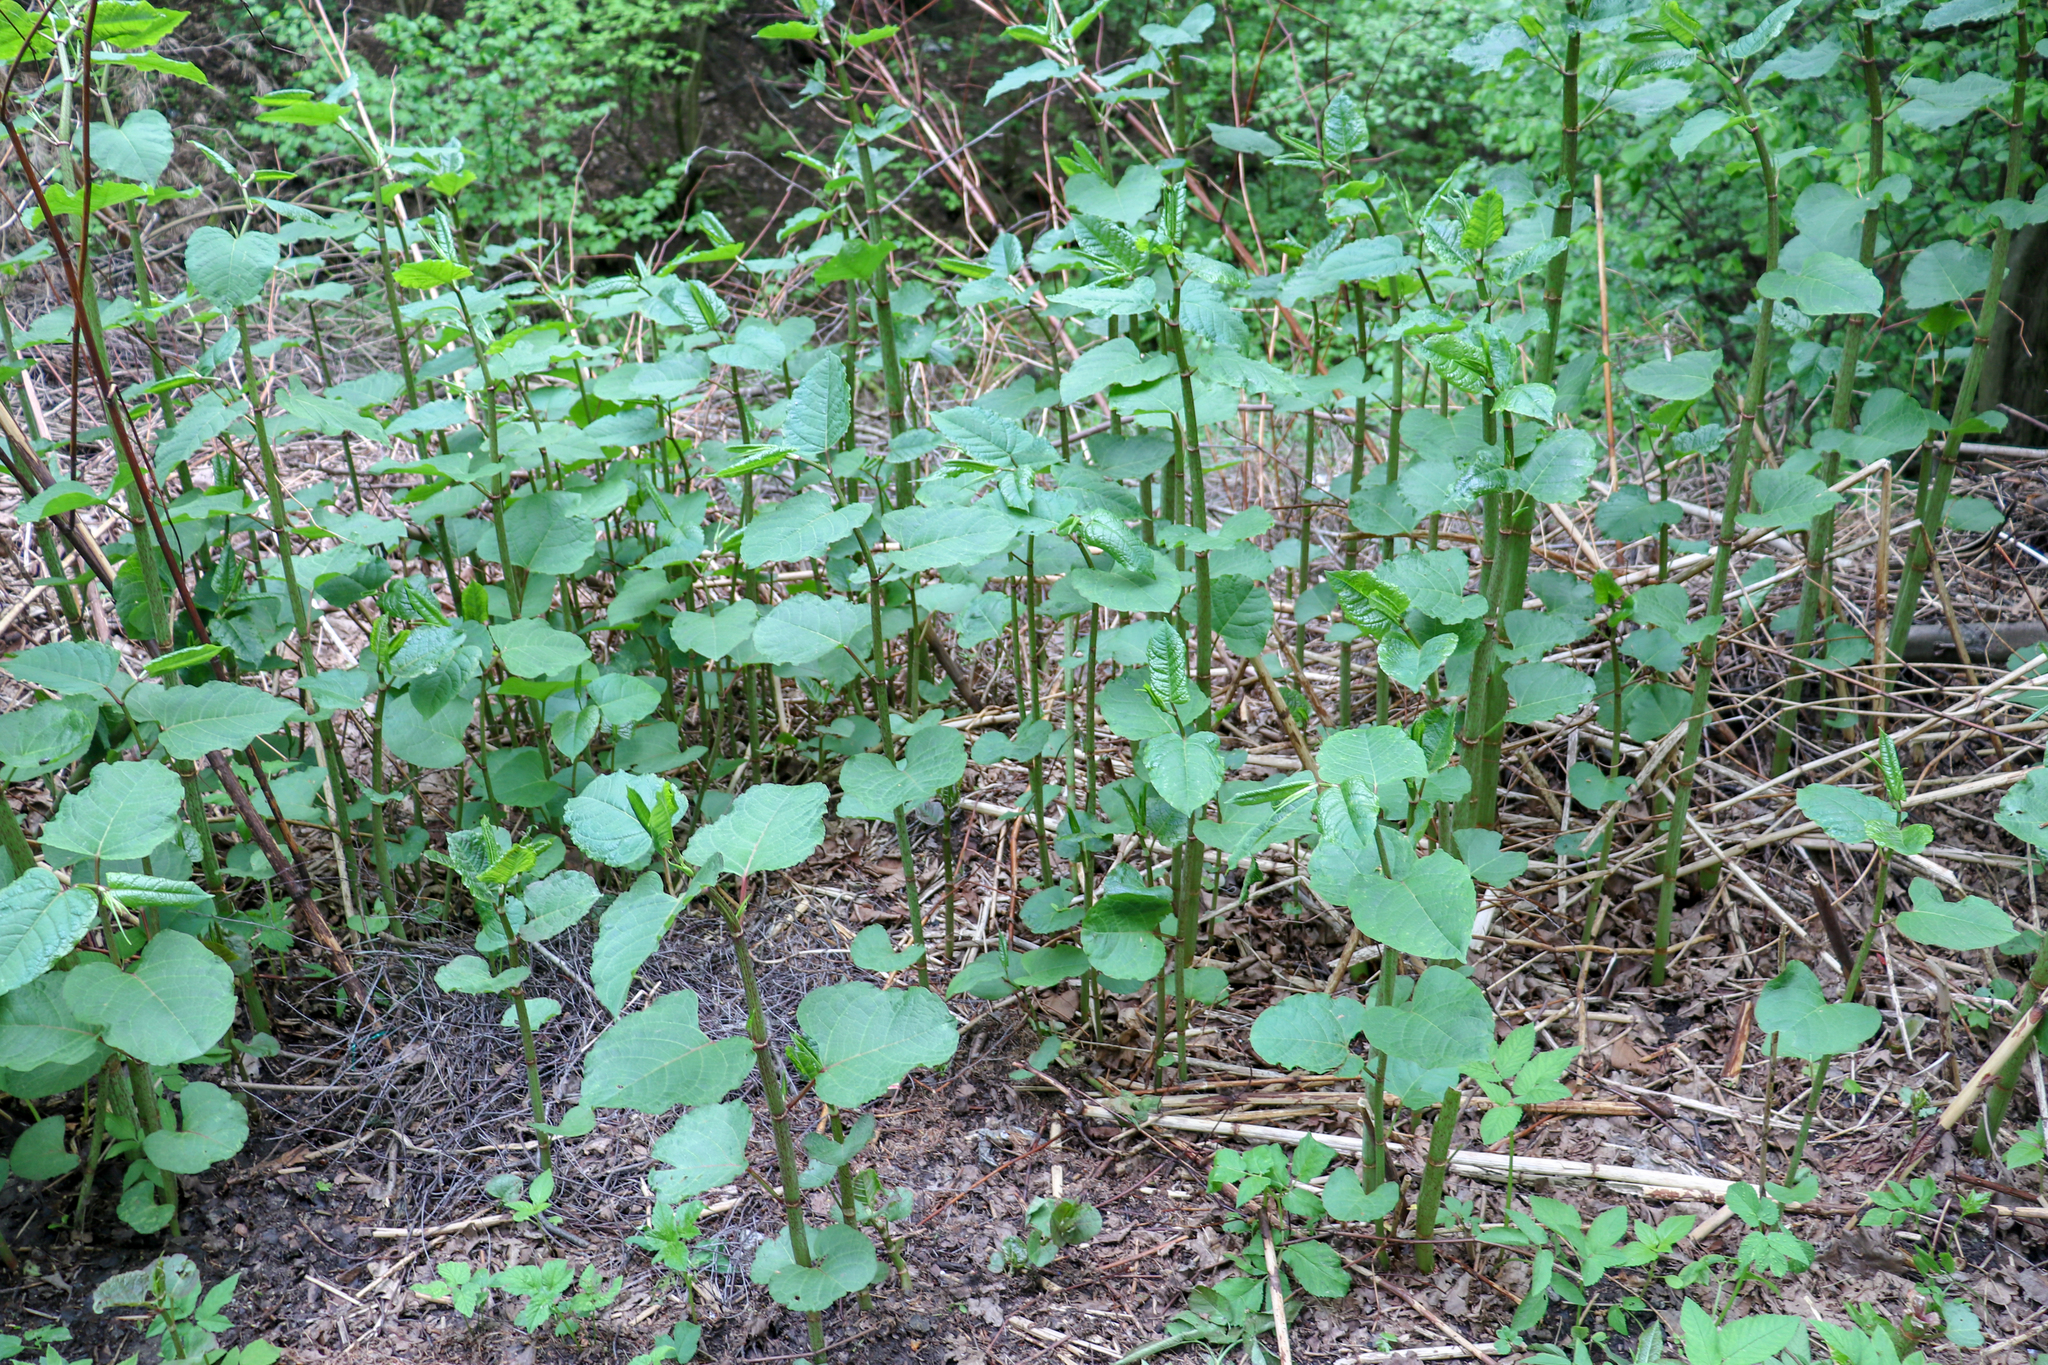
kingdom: Plantae
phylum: Tracheophyta
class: Magnoliopsida
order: Caryophyllales
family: Polygonaceae
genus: Reynoutria
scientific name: Reynoutria bohemica
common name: Bohemian knotweed
